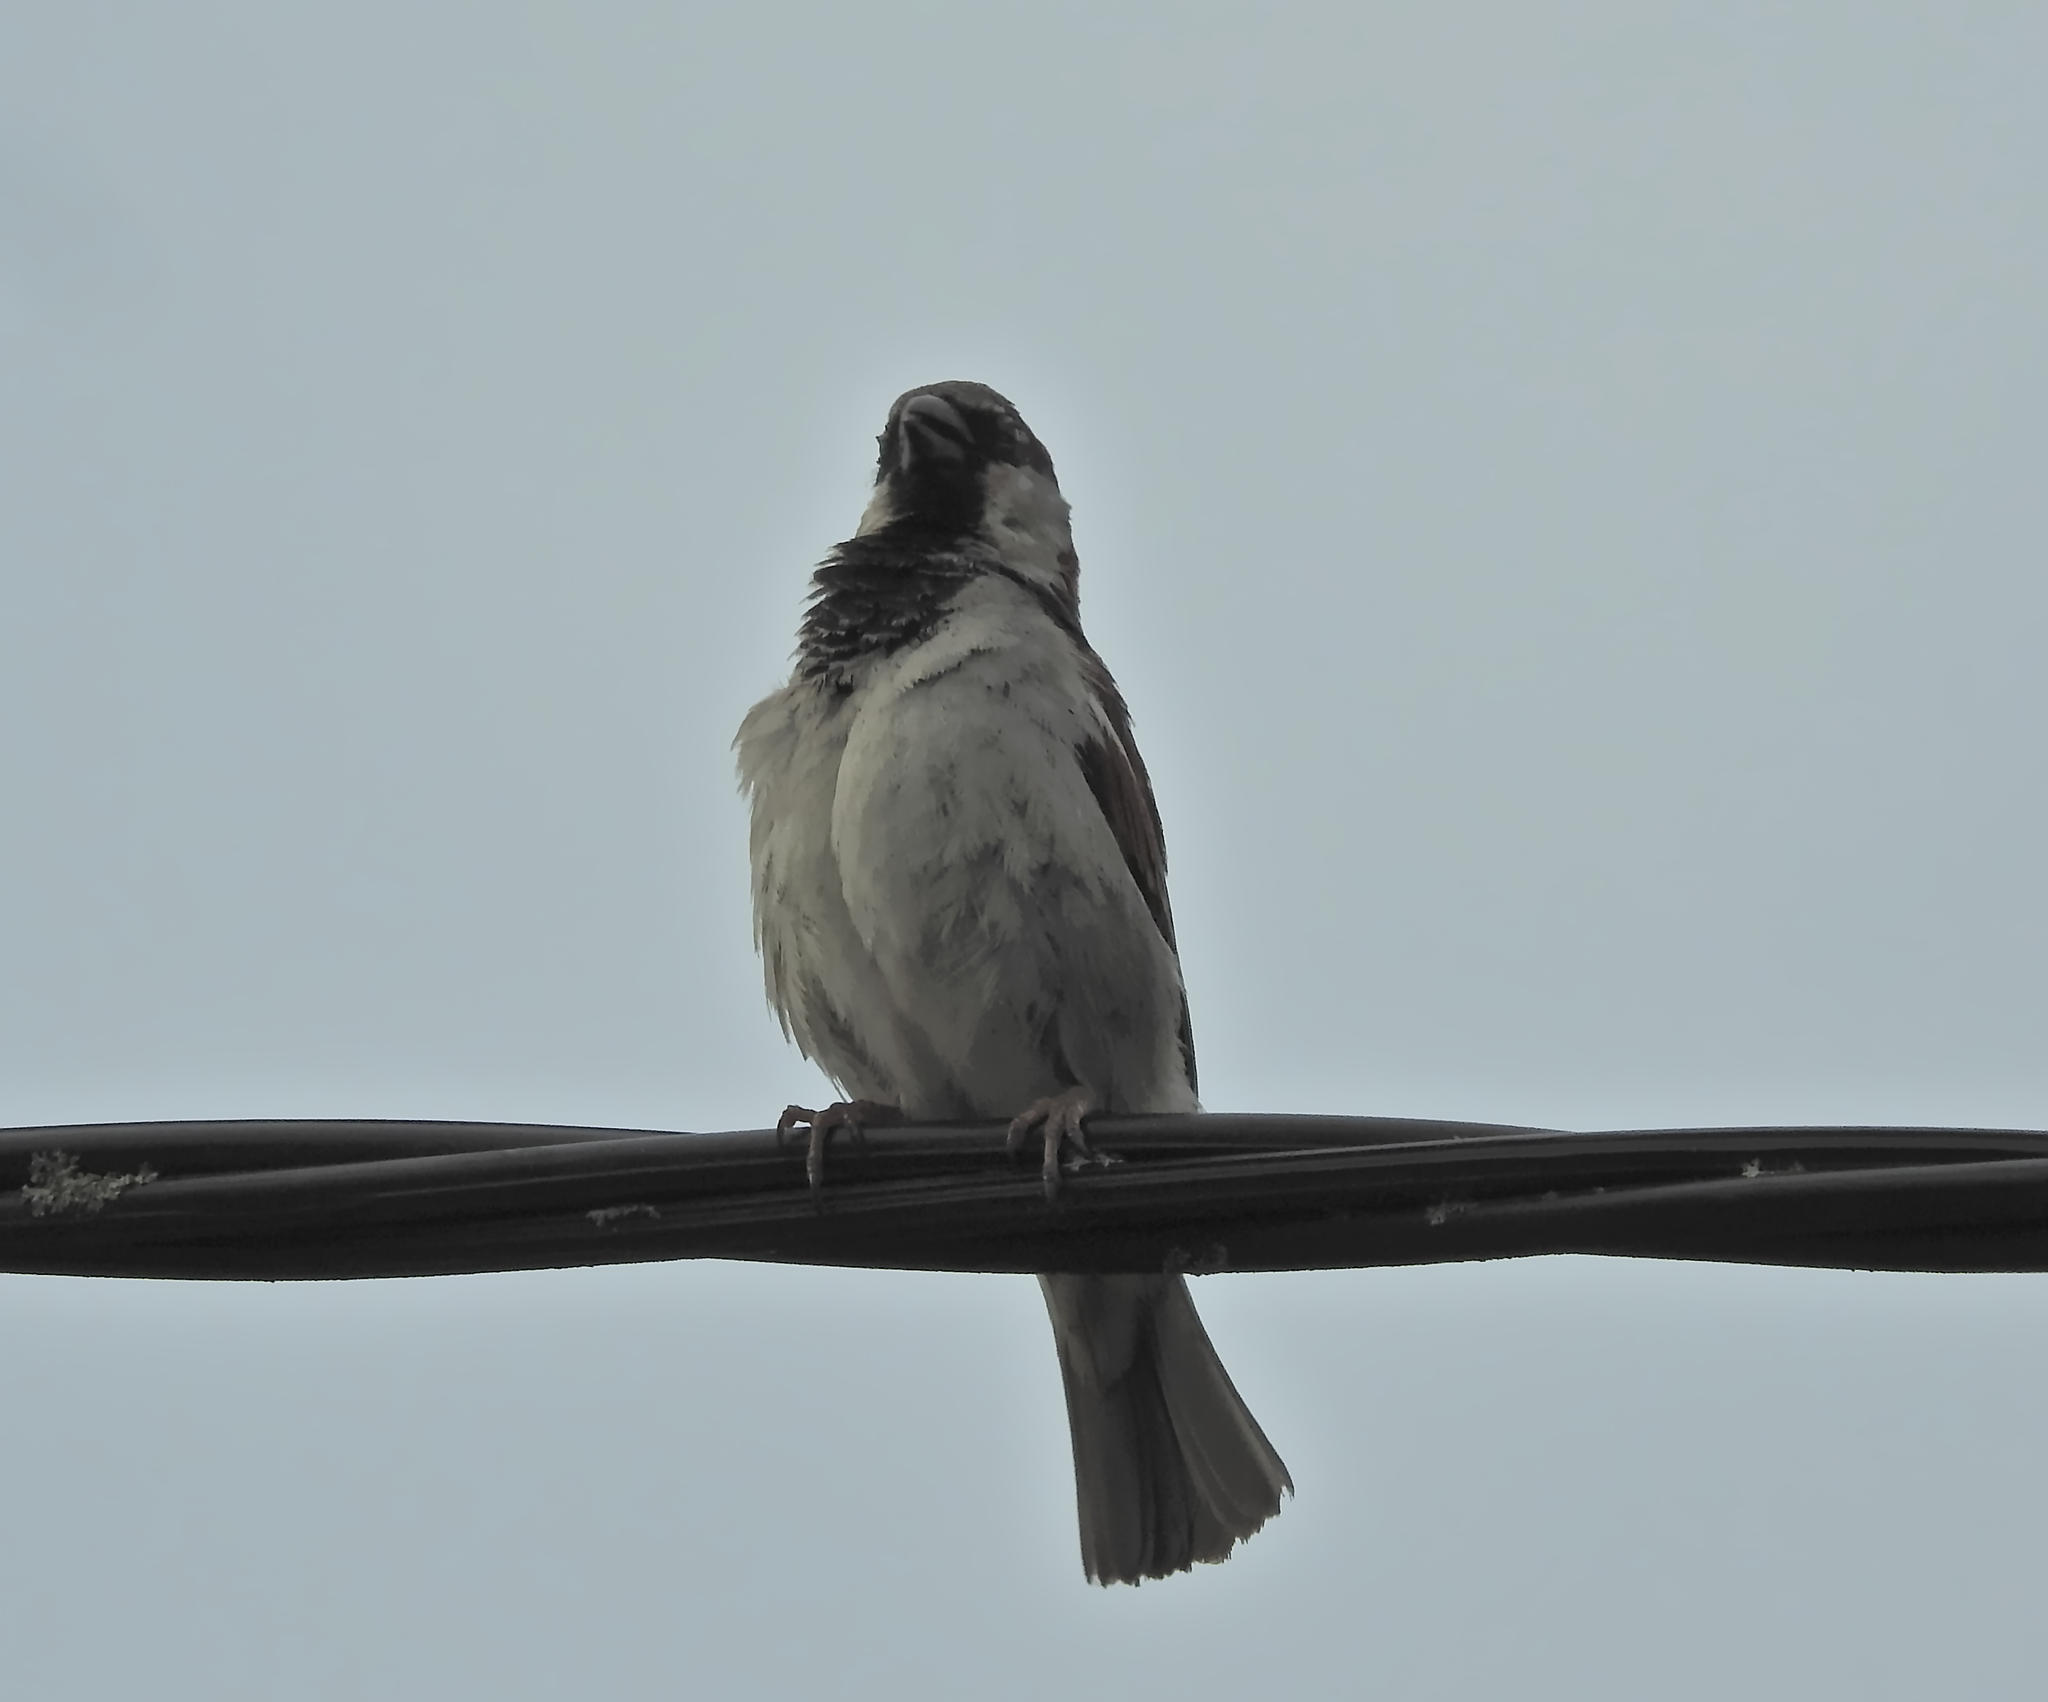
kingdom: Animalia
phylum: Chordata
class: Aves
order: Passeriformes
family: Passeridae
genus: Passer
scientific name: Passer domesticus
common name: House sparrow
